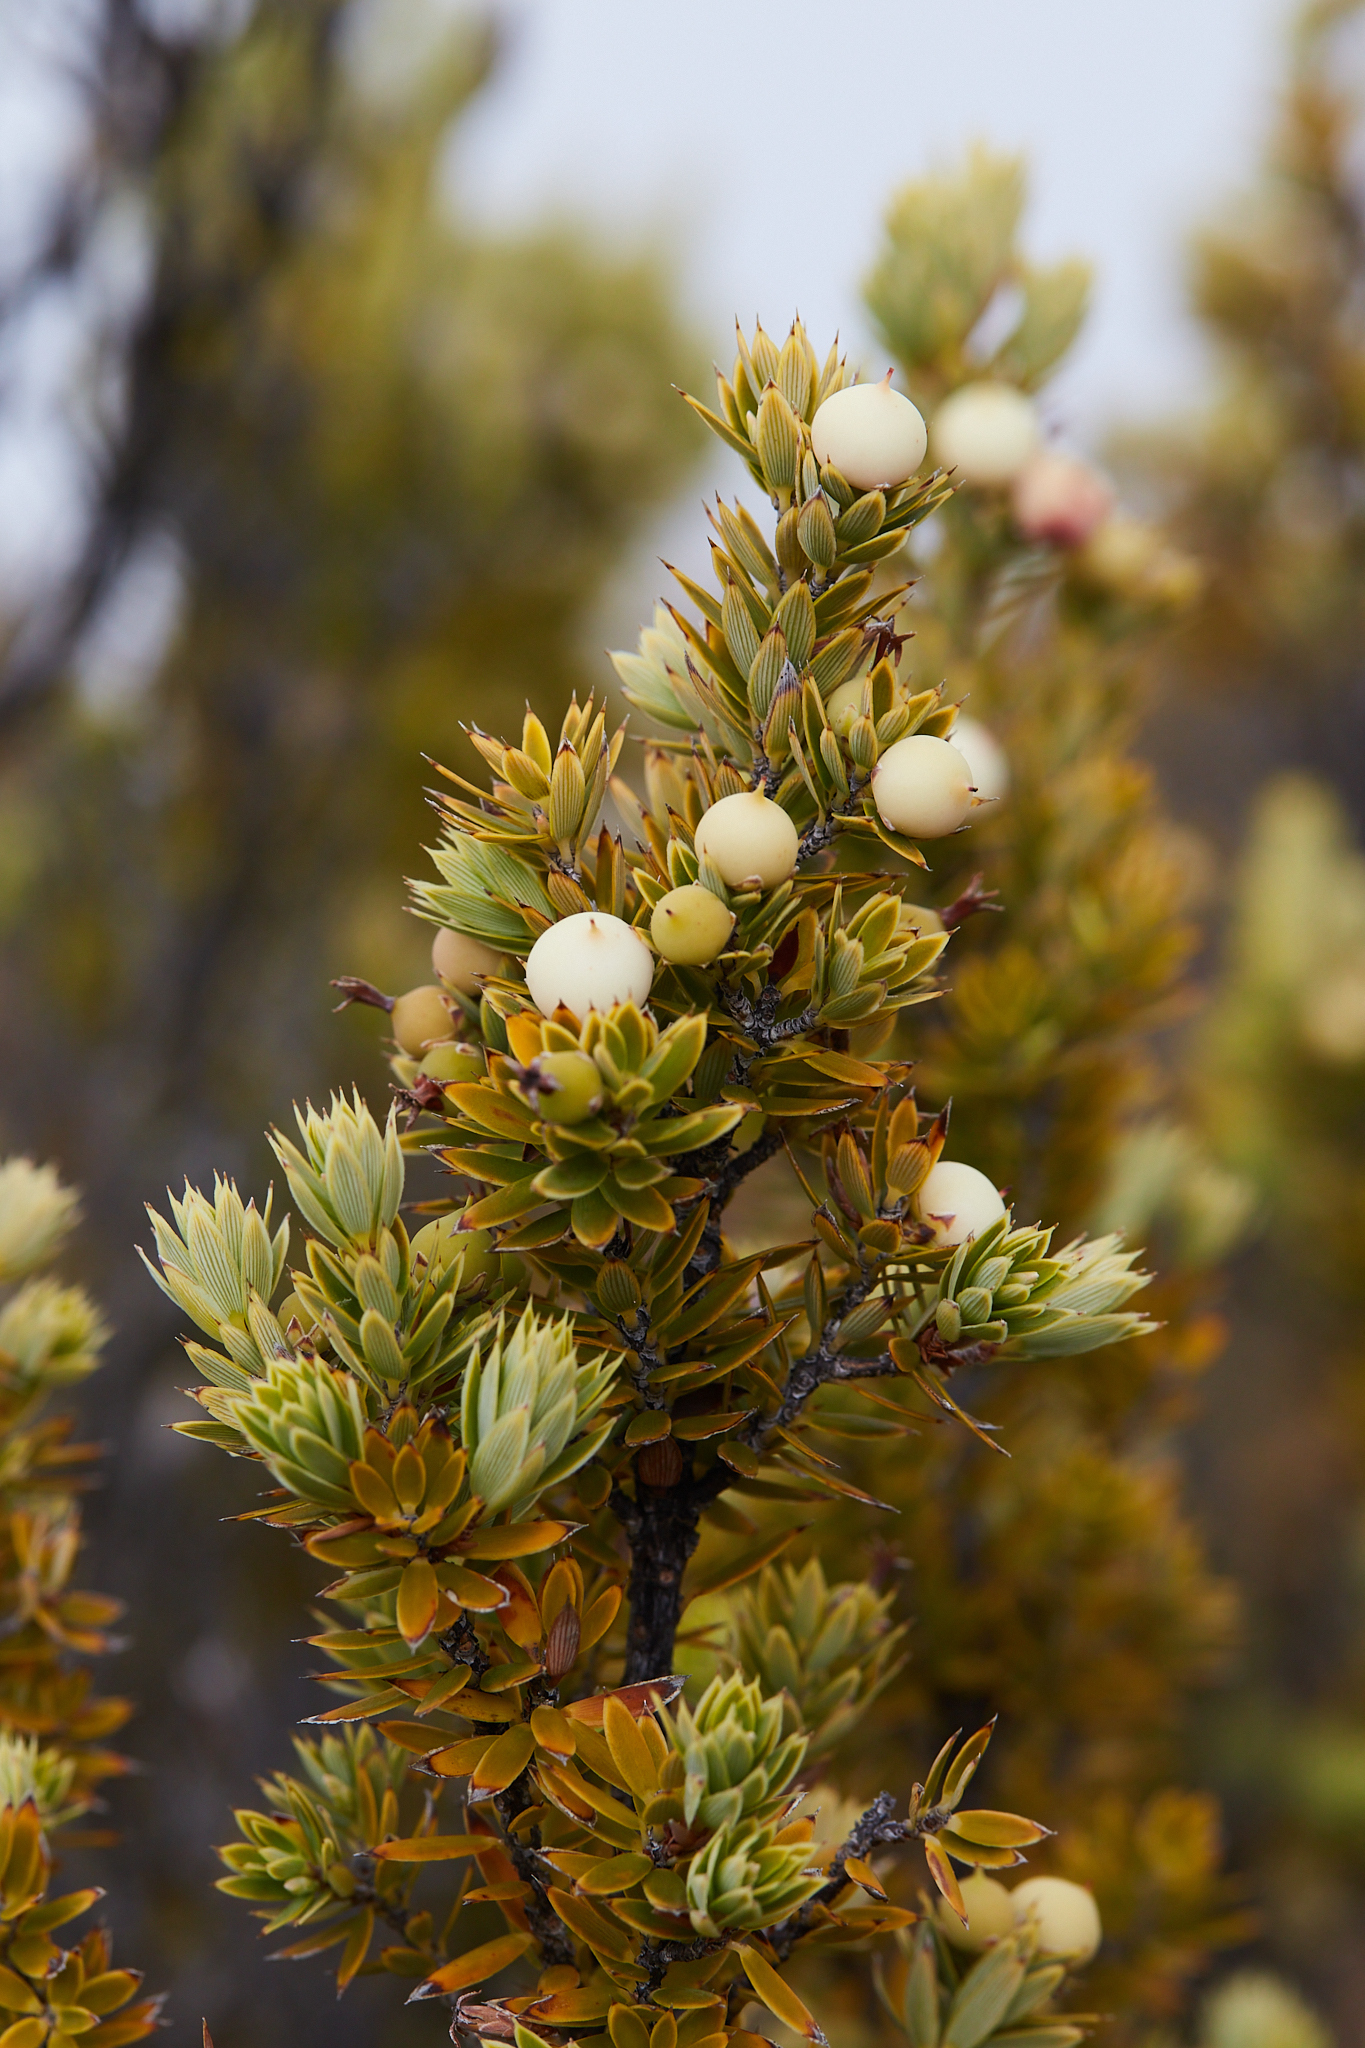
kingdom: Plantae
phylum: Tracheophyta
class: Magnoliopsida
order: Ericales
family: Ericaceae
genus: Leptecophylla
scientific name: Leptecophylla tameiameiae
